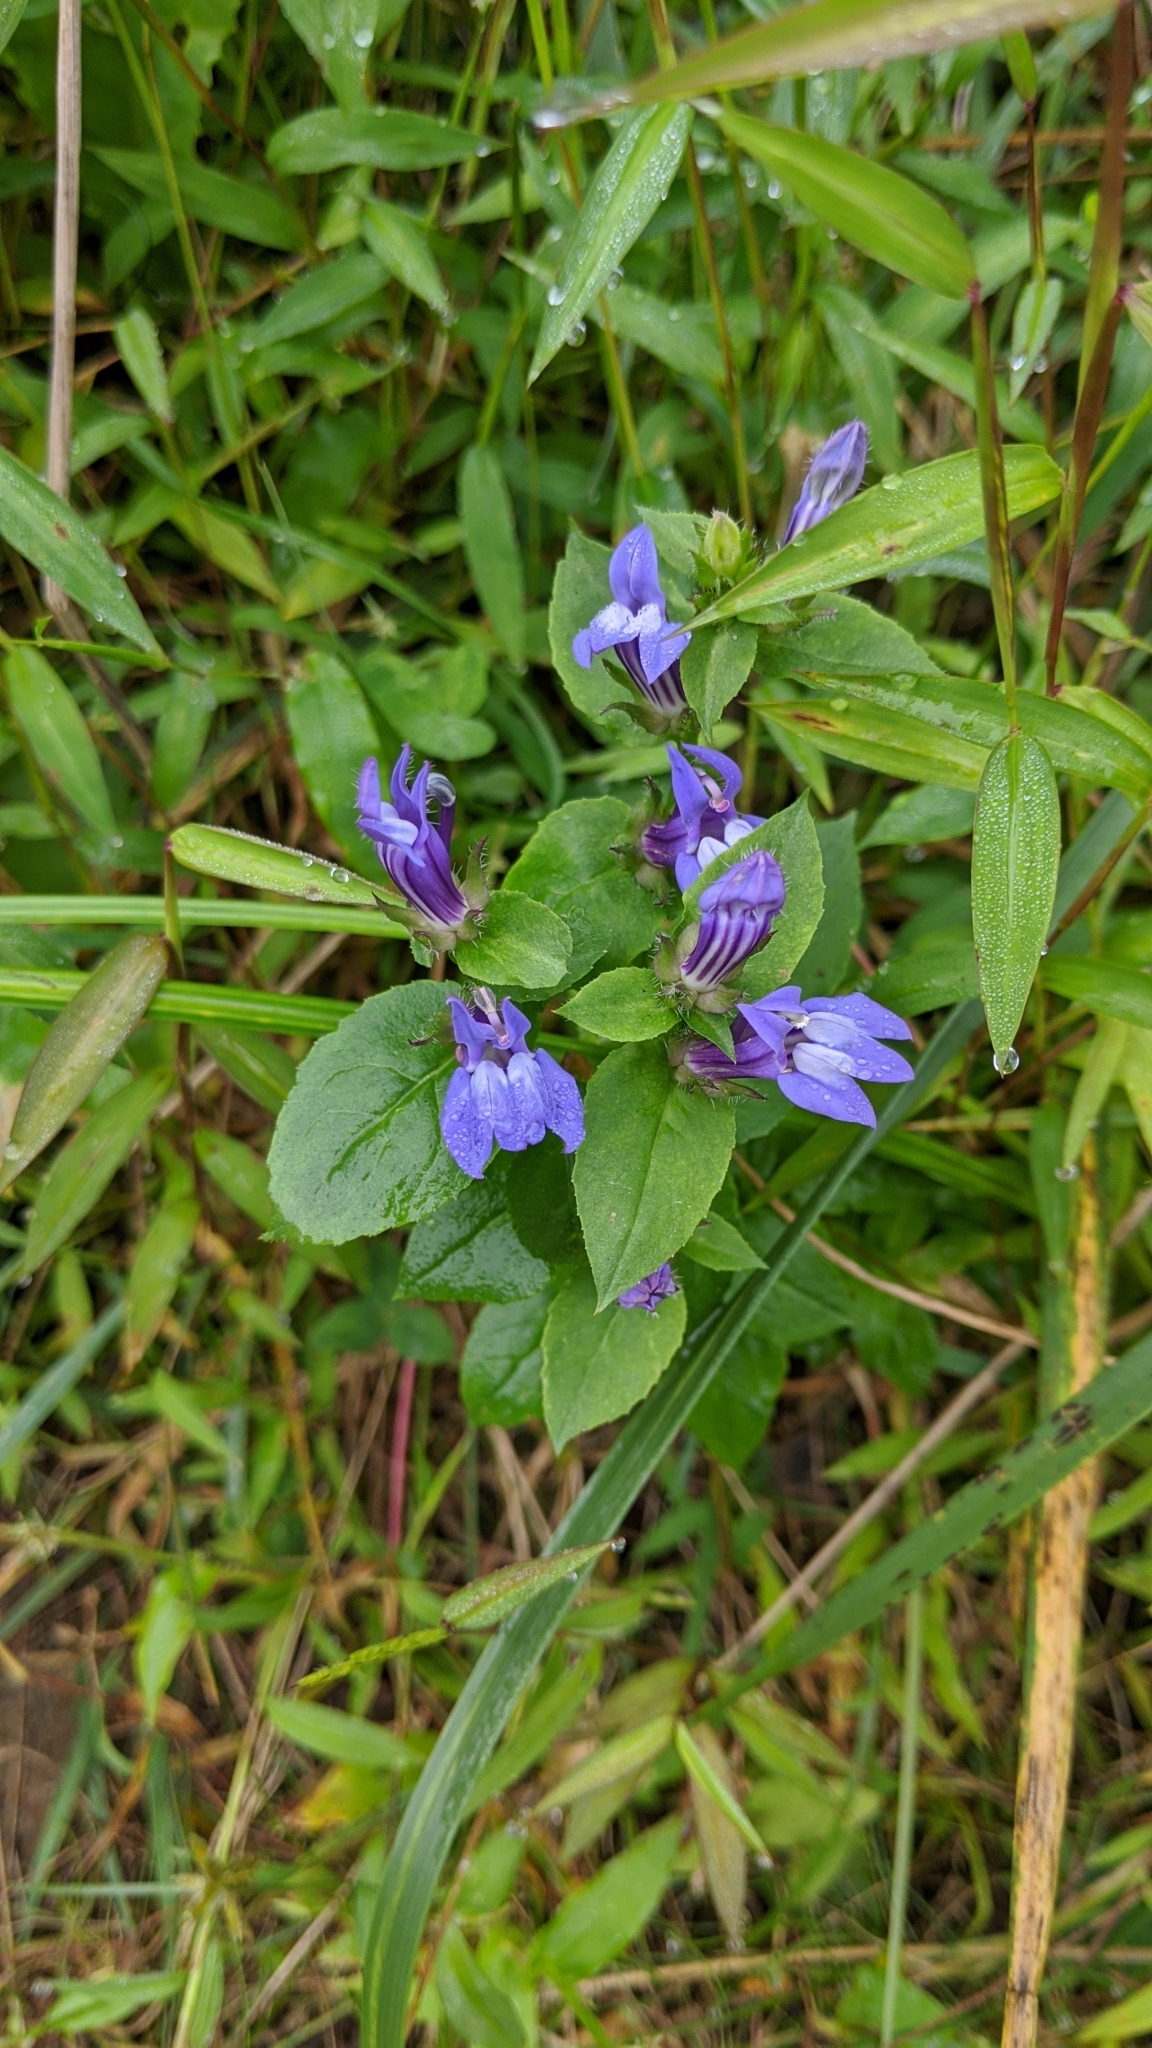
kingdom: Plantae
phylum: Tracheophyta
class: Magnoliopsida
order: Asterales
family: Campanulaceae
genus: Lobelia
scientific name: Lobelia siphilitica
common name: Great lobelia
